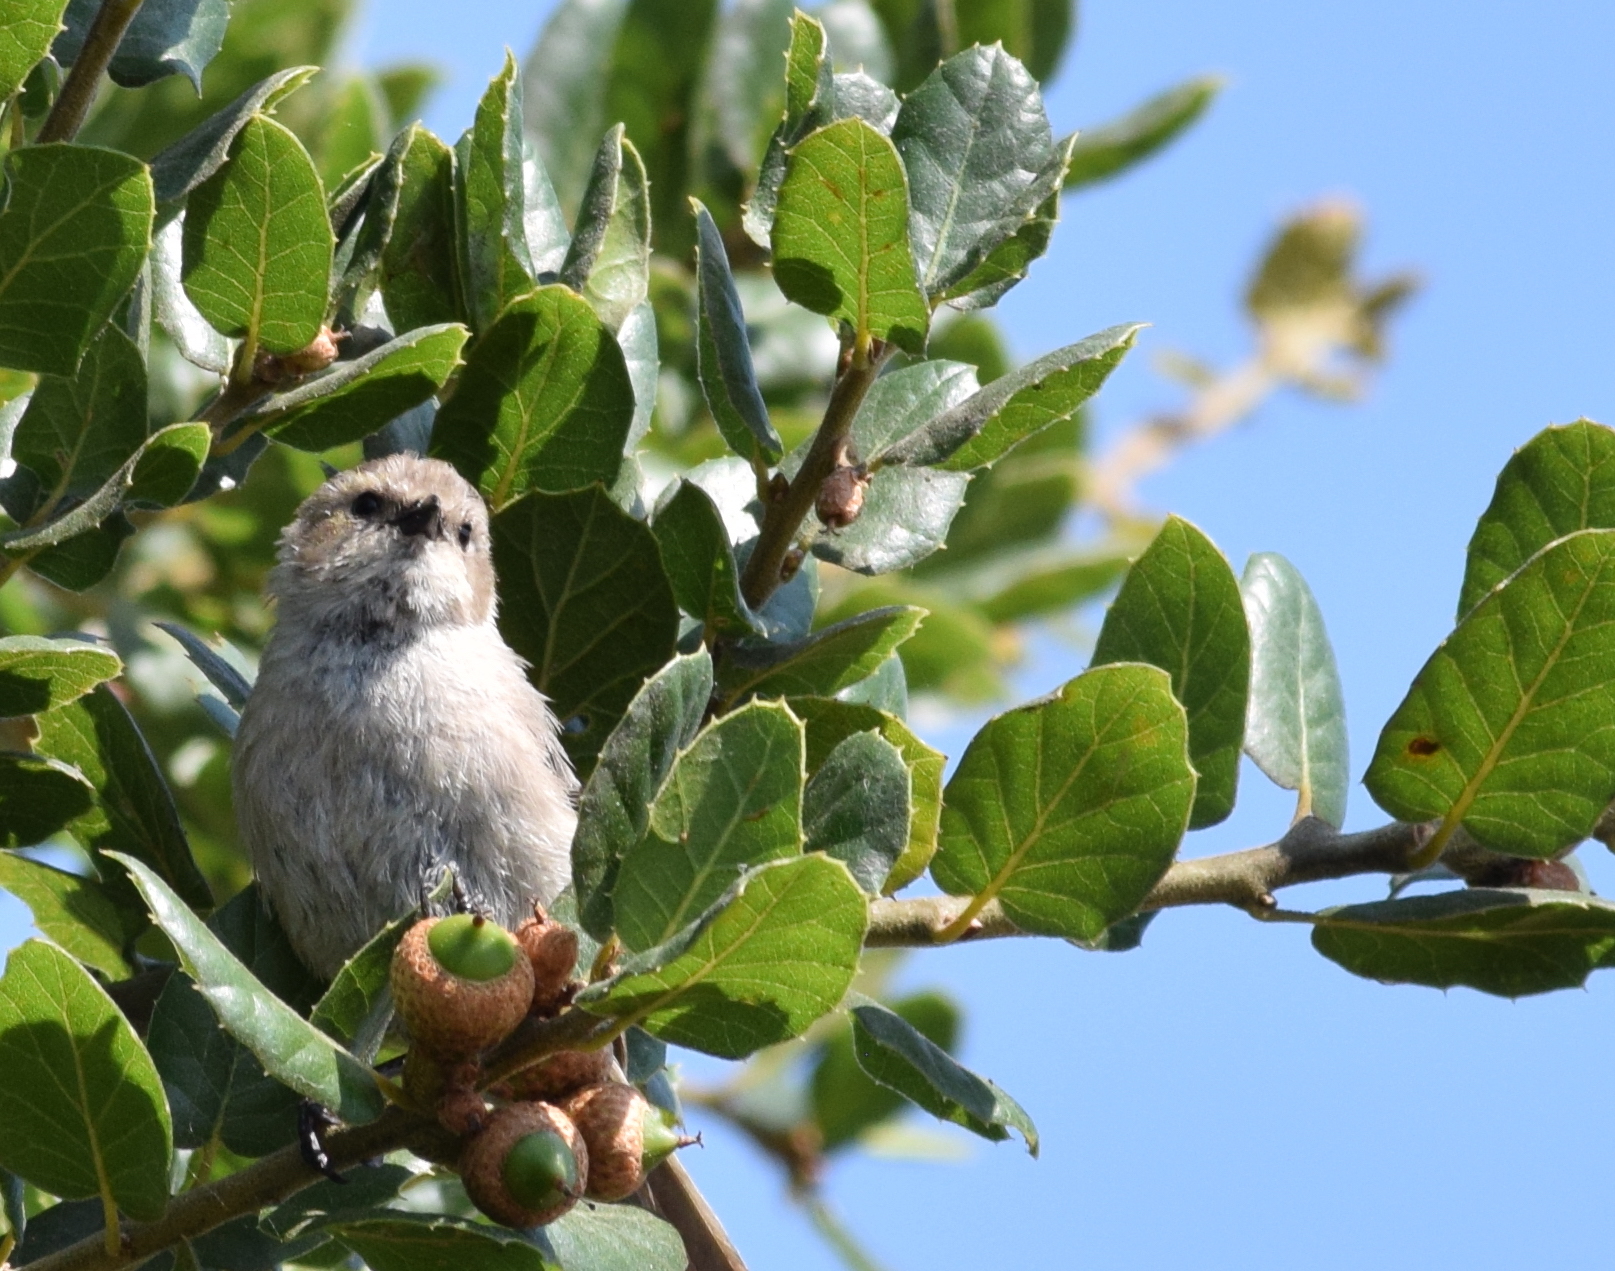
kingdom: Animalia
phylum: Chordata
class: Aves
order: Passeriformes
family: Aegithalidae
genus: Psaltriparus
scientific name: Psaltriparus minimus
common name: American bushtit
